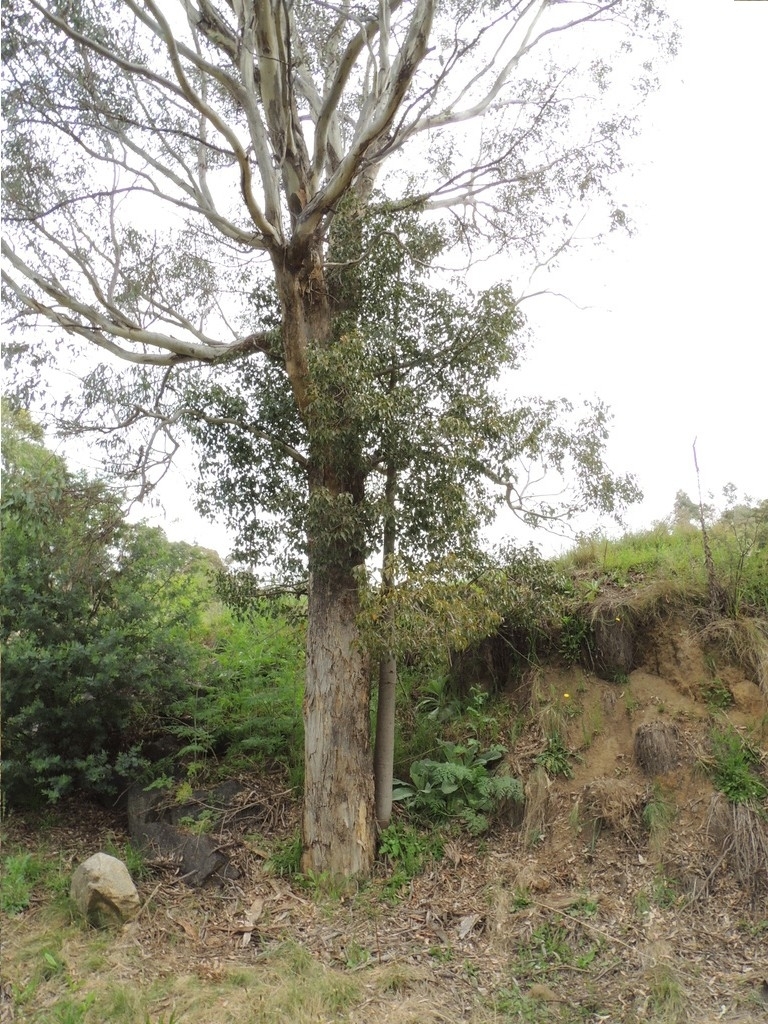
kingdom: Plantae
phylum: Tracheophyta
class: Magnoliopsida
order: Malvales
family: Malvaceae
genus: Brachychiton
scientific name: Brachychiton populneus
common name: Kurrajong
